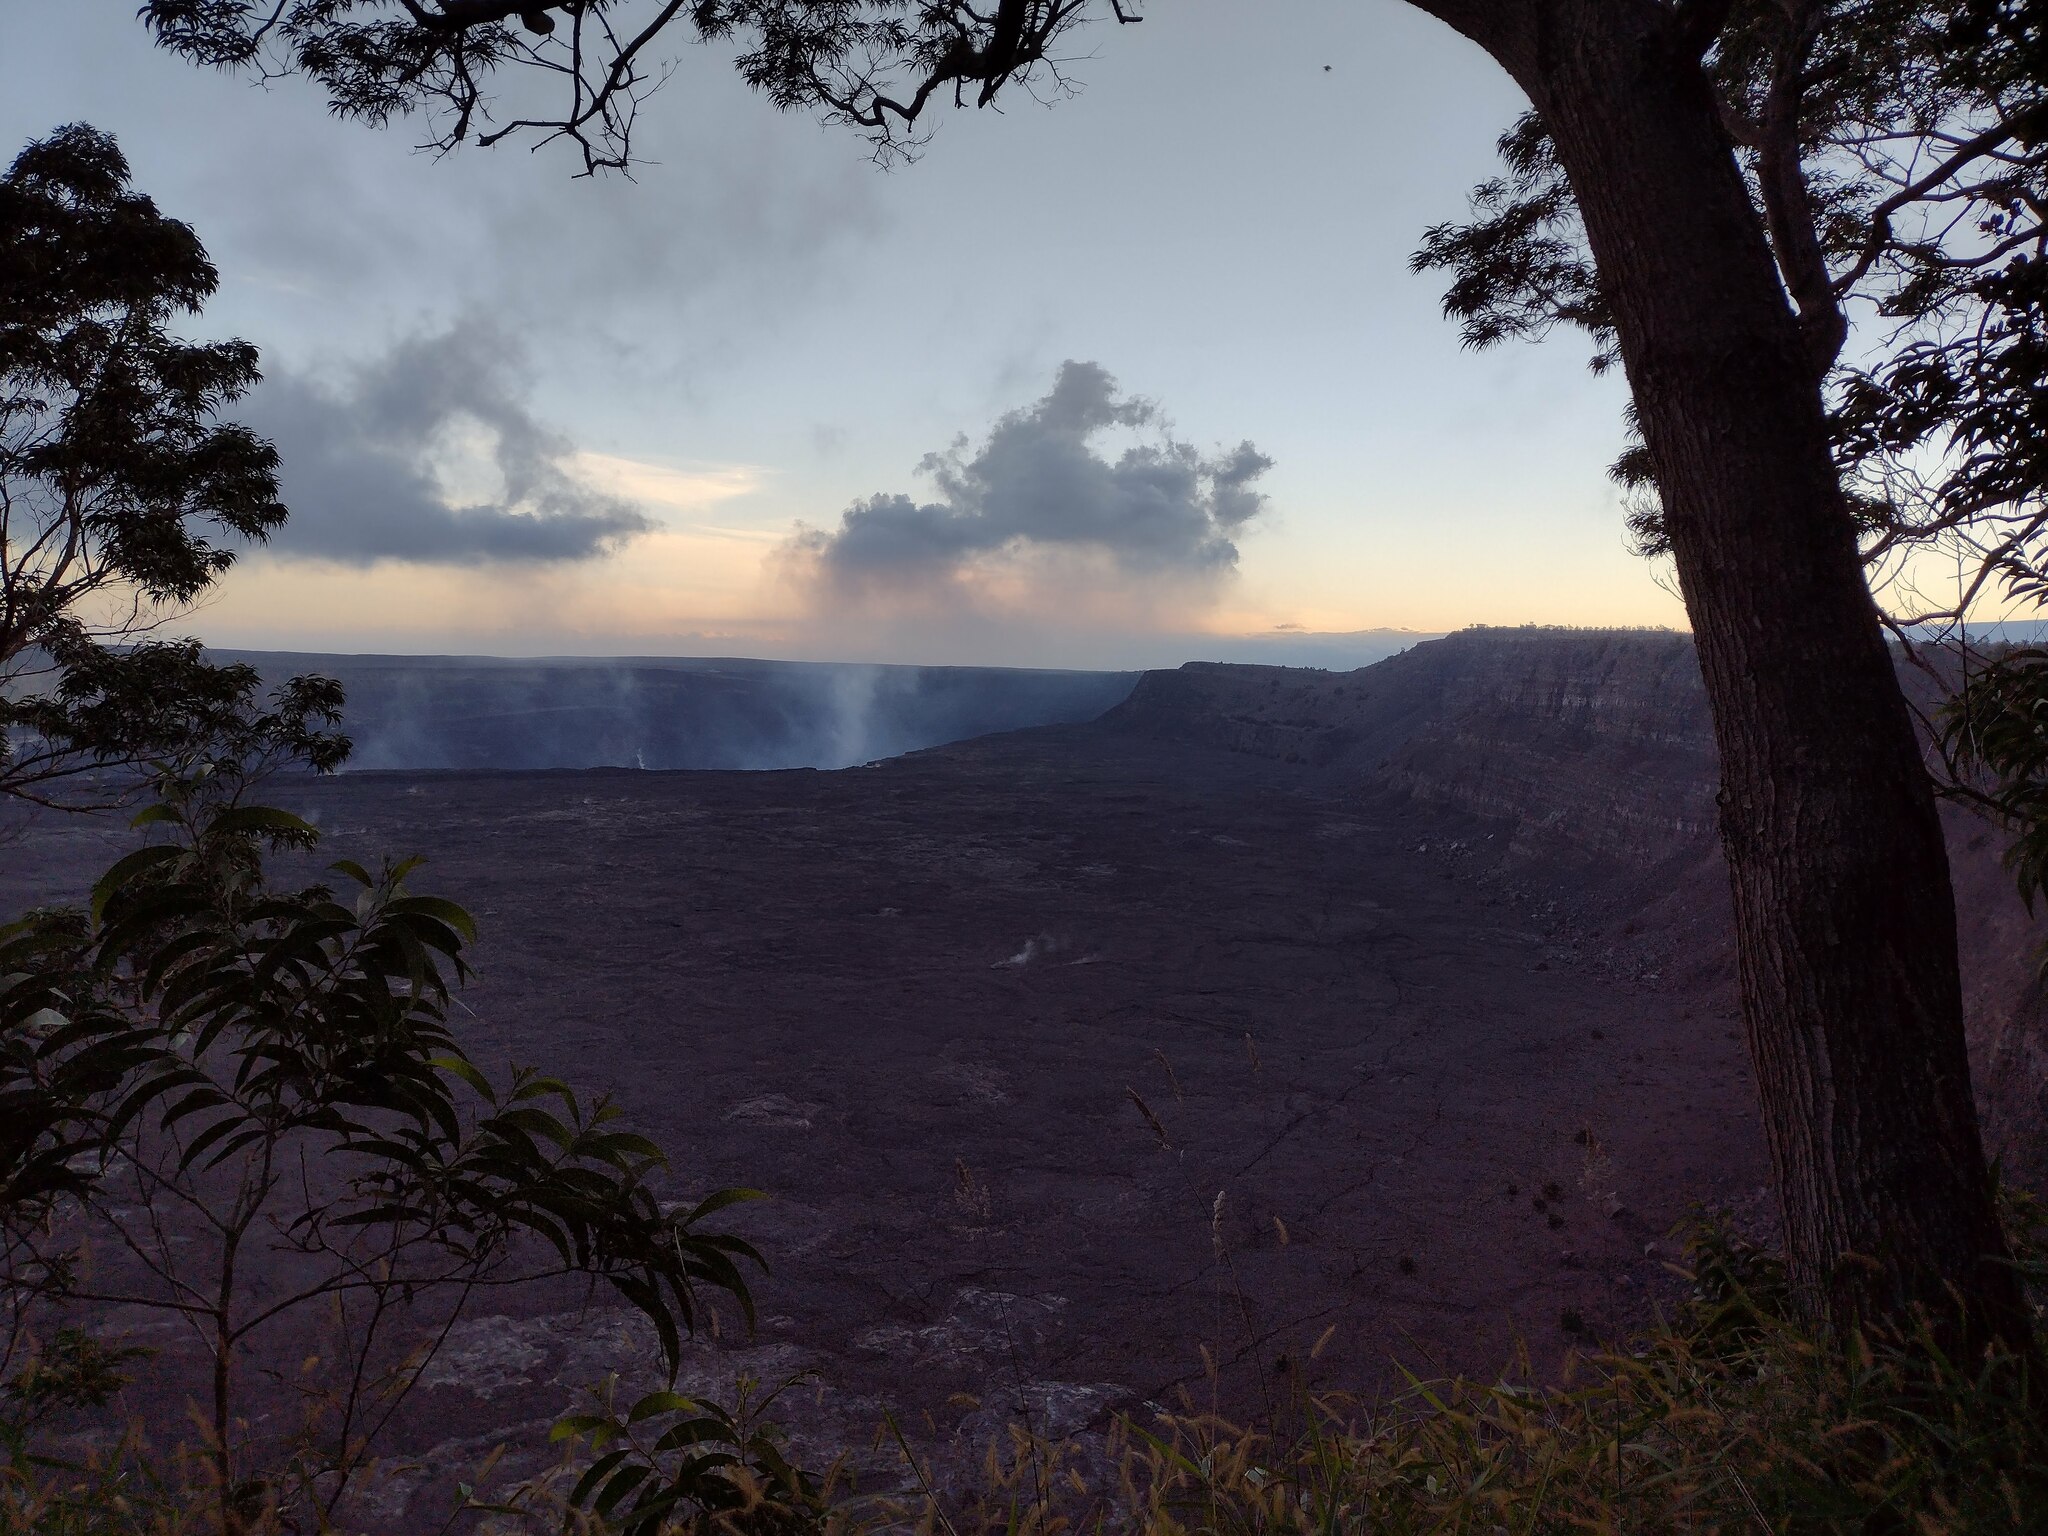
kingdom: Plantae
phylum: Tracheophyta
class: Magnoliopsida
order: Fabales
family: Fabaceae
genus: Acacia
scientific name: Acacia koa
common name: Gray koa
